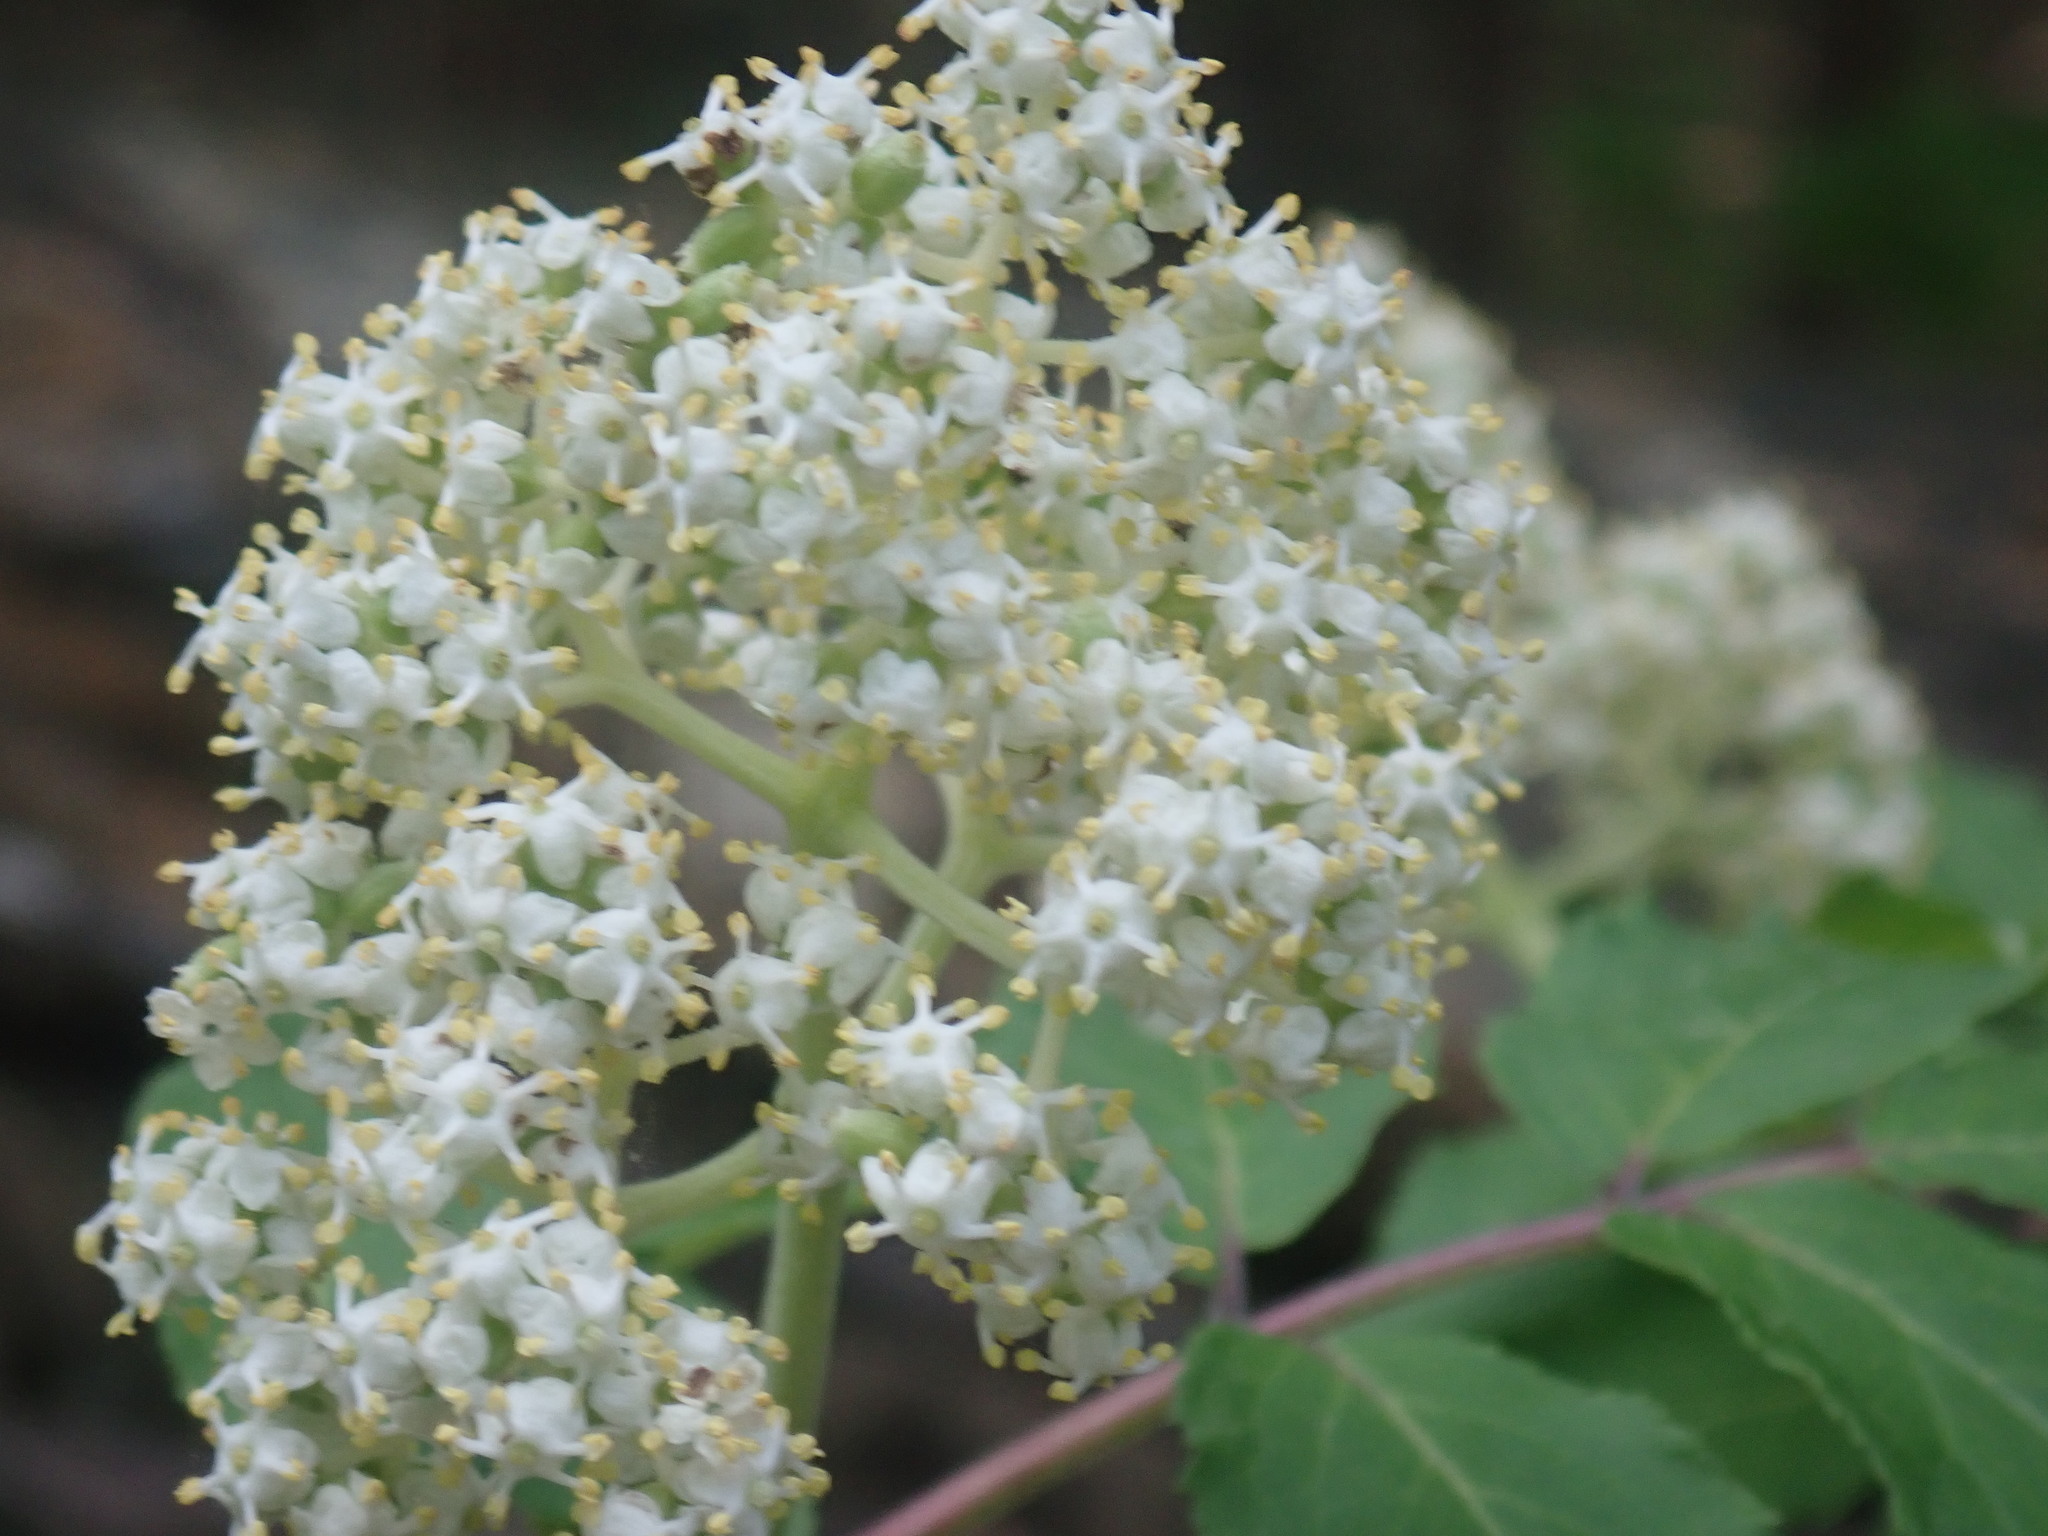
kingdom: Plantae
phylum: Tracheophyta
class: Magnoliopsida
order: Dipsacales
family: Viburnaceae
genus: Sambucus
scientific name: Sambucus racemosa
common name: Red-berried elder
